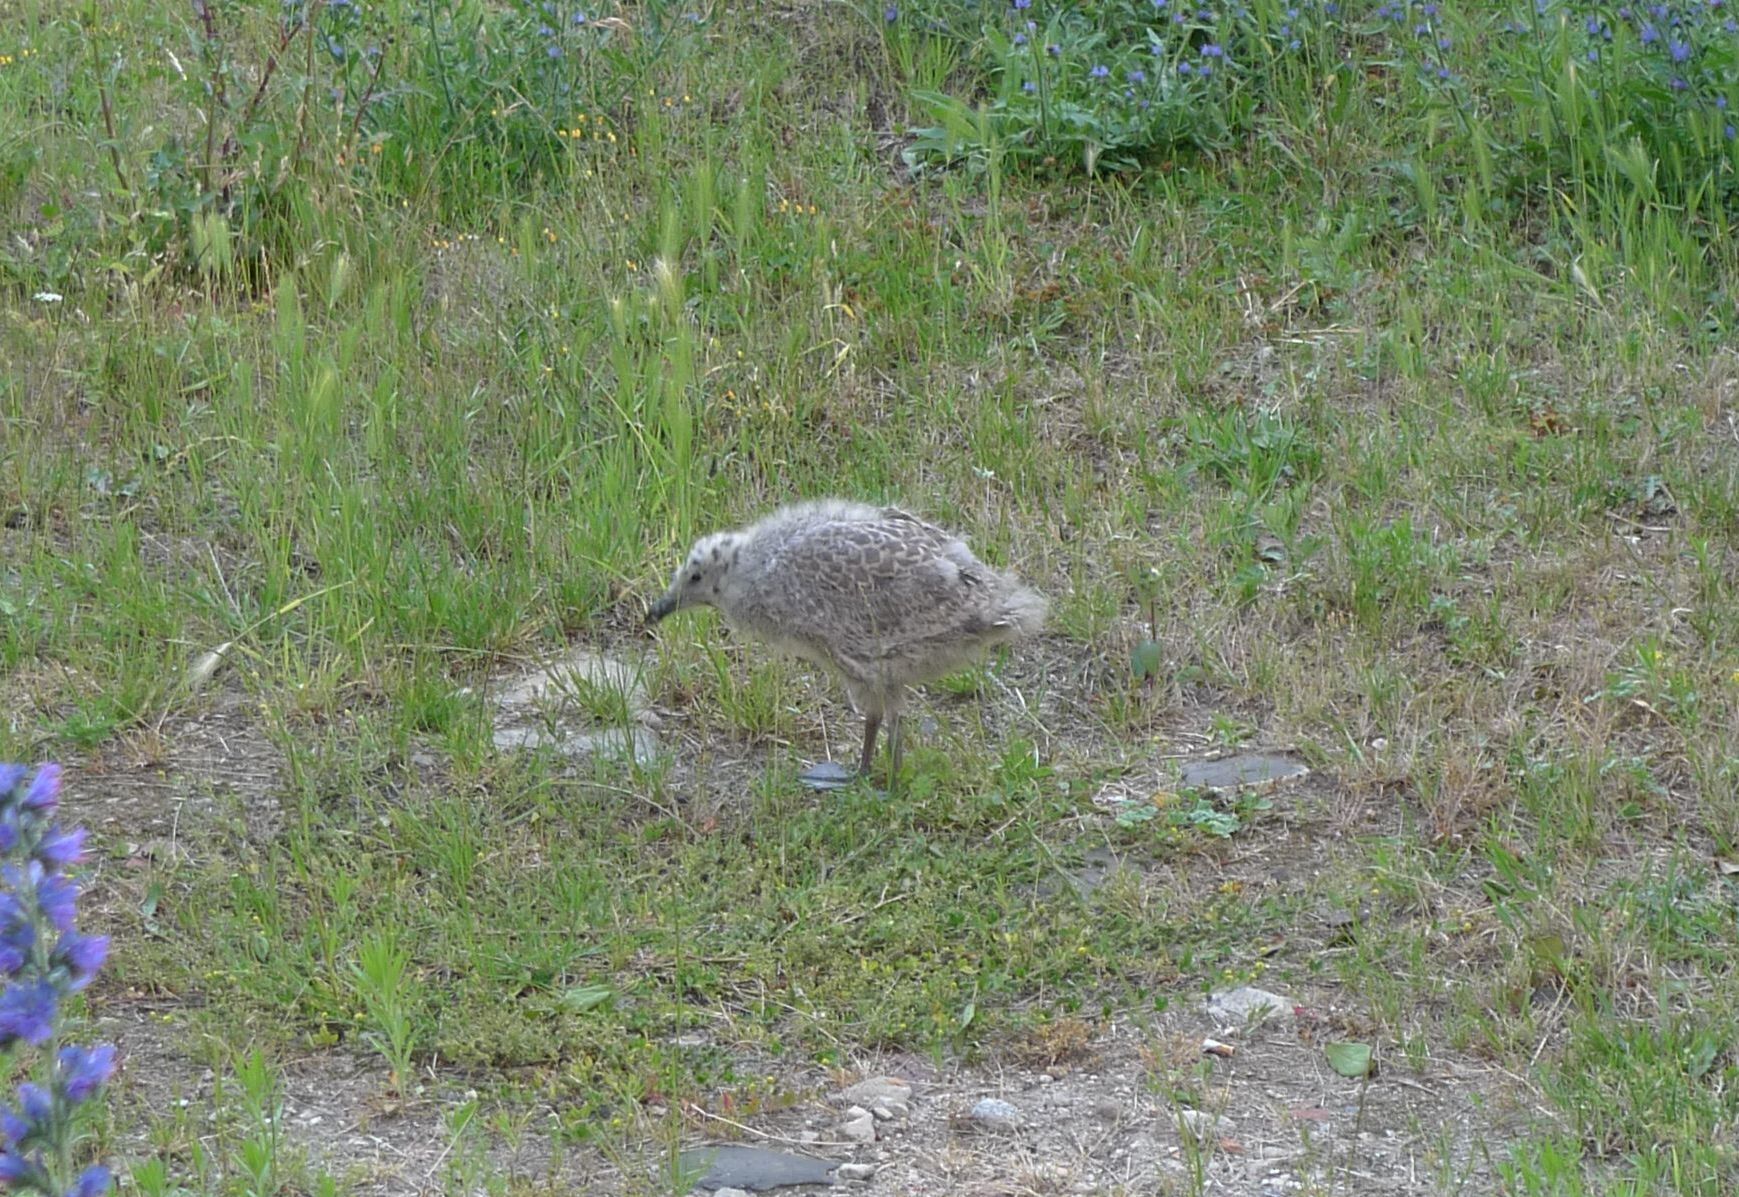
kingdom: Animalia
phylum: Chordata
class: Aves
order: Charadriiformes
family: Laridae
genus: Larus
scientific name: Larus argentatus
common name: Herring gull
